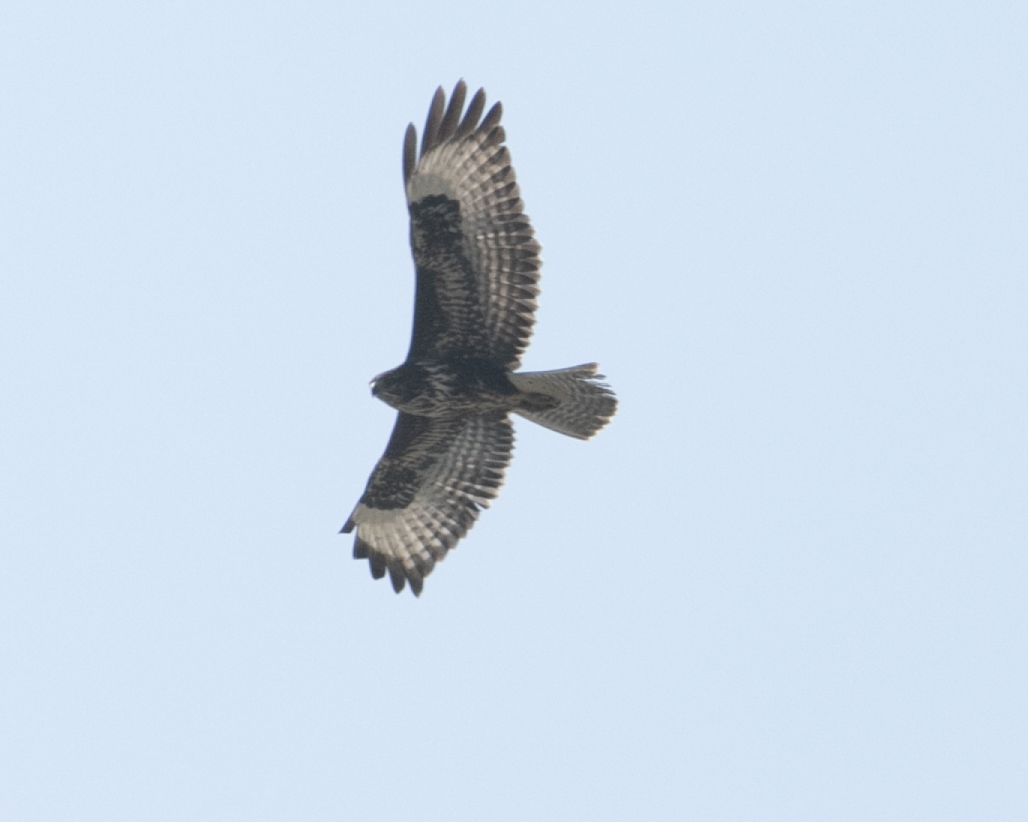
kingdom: Animalia
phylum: Chordata
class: Aves
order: Accipitriformes
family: Accipitridae
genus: Buteo
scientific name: Buteo buteo
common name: Common buzzard
